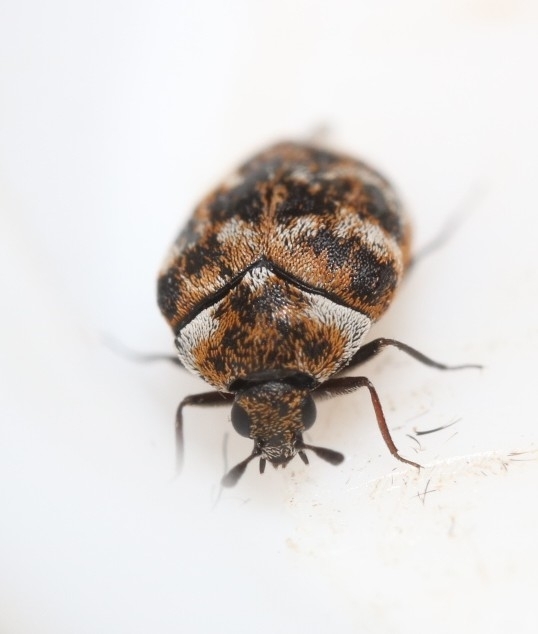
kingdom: Animalia
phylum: Arthropoda
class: Insecta
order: Coleoptera
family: Dermestidae
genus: Anthrenus
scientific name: Anthrenus verbasci
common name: Varied carpet beetle
